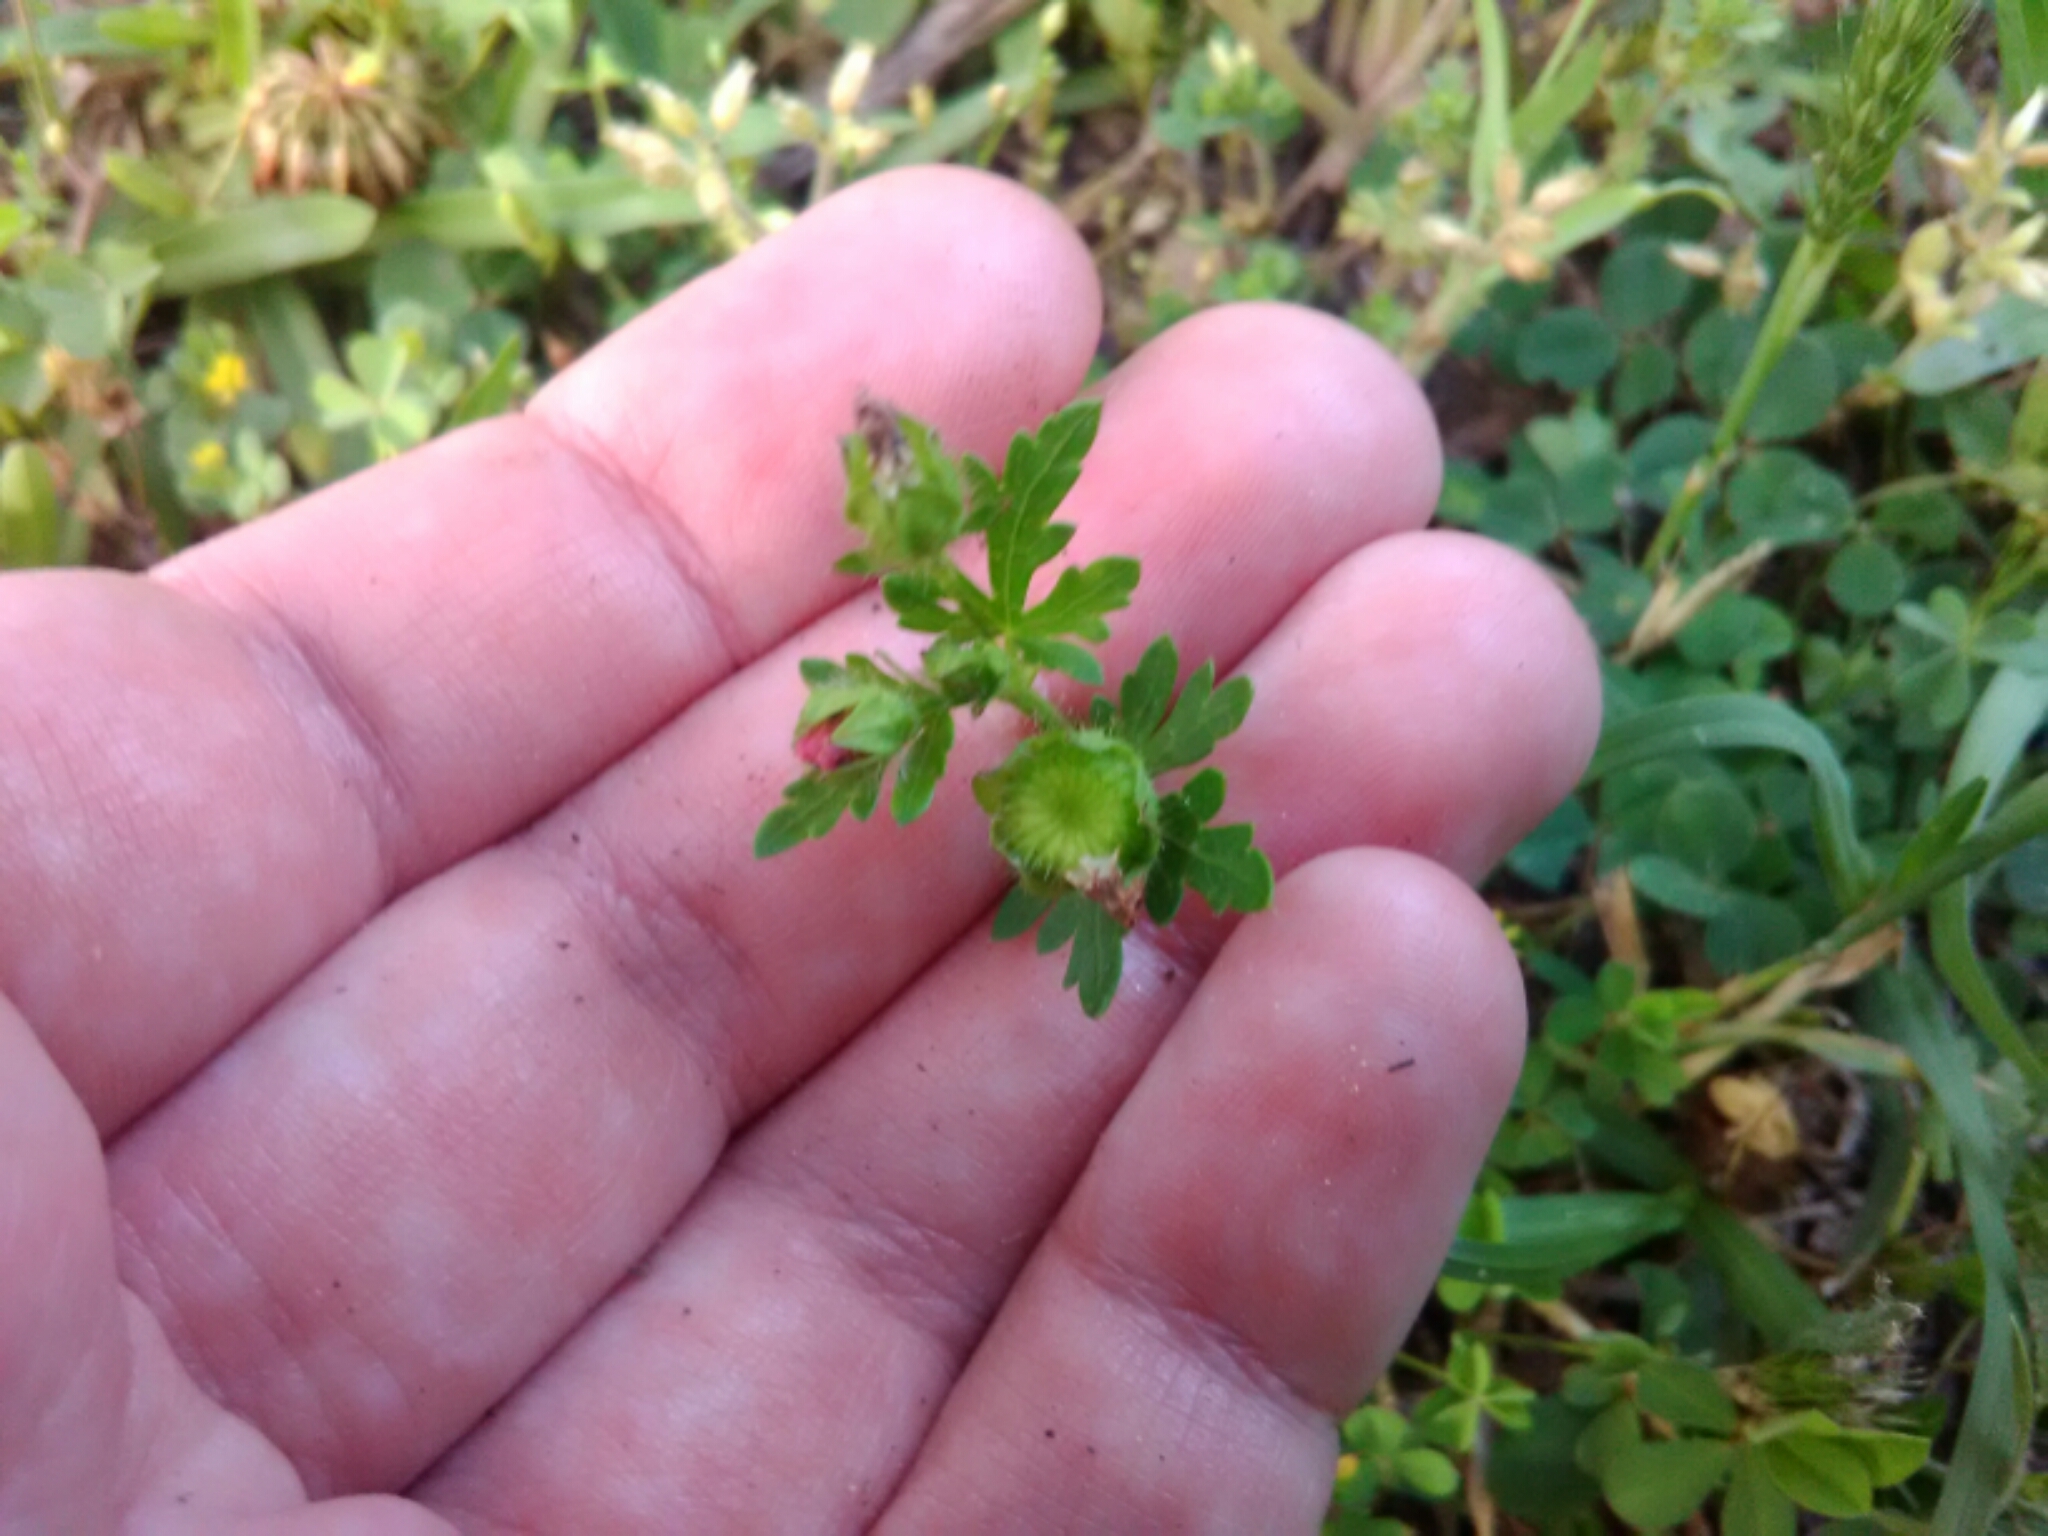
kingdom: Plantae
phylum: Tracheophyta
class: Magnoliopsida
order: Malvales
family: Malvaceae
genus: Modiola
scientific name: Modiola caroliniana
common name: Carolina bristlemallow
